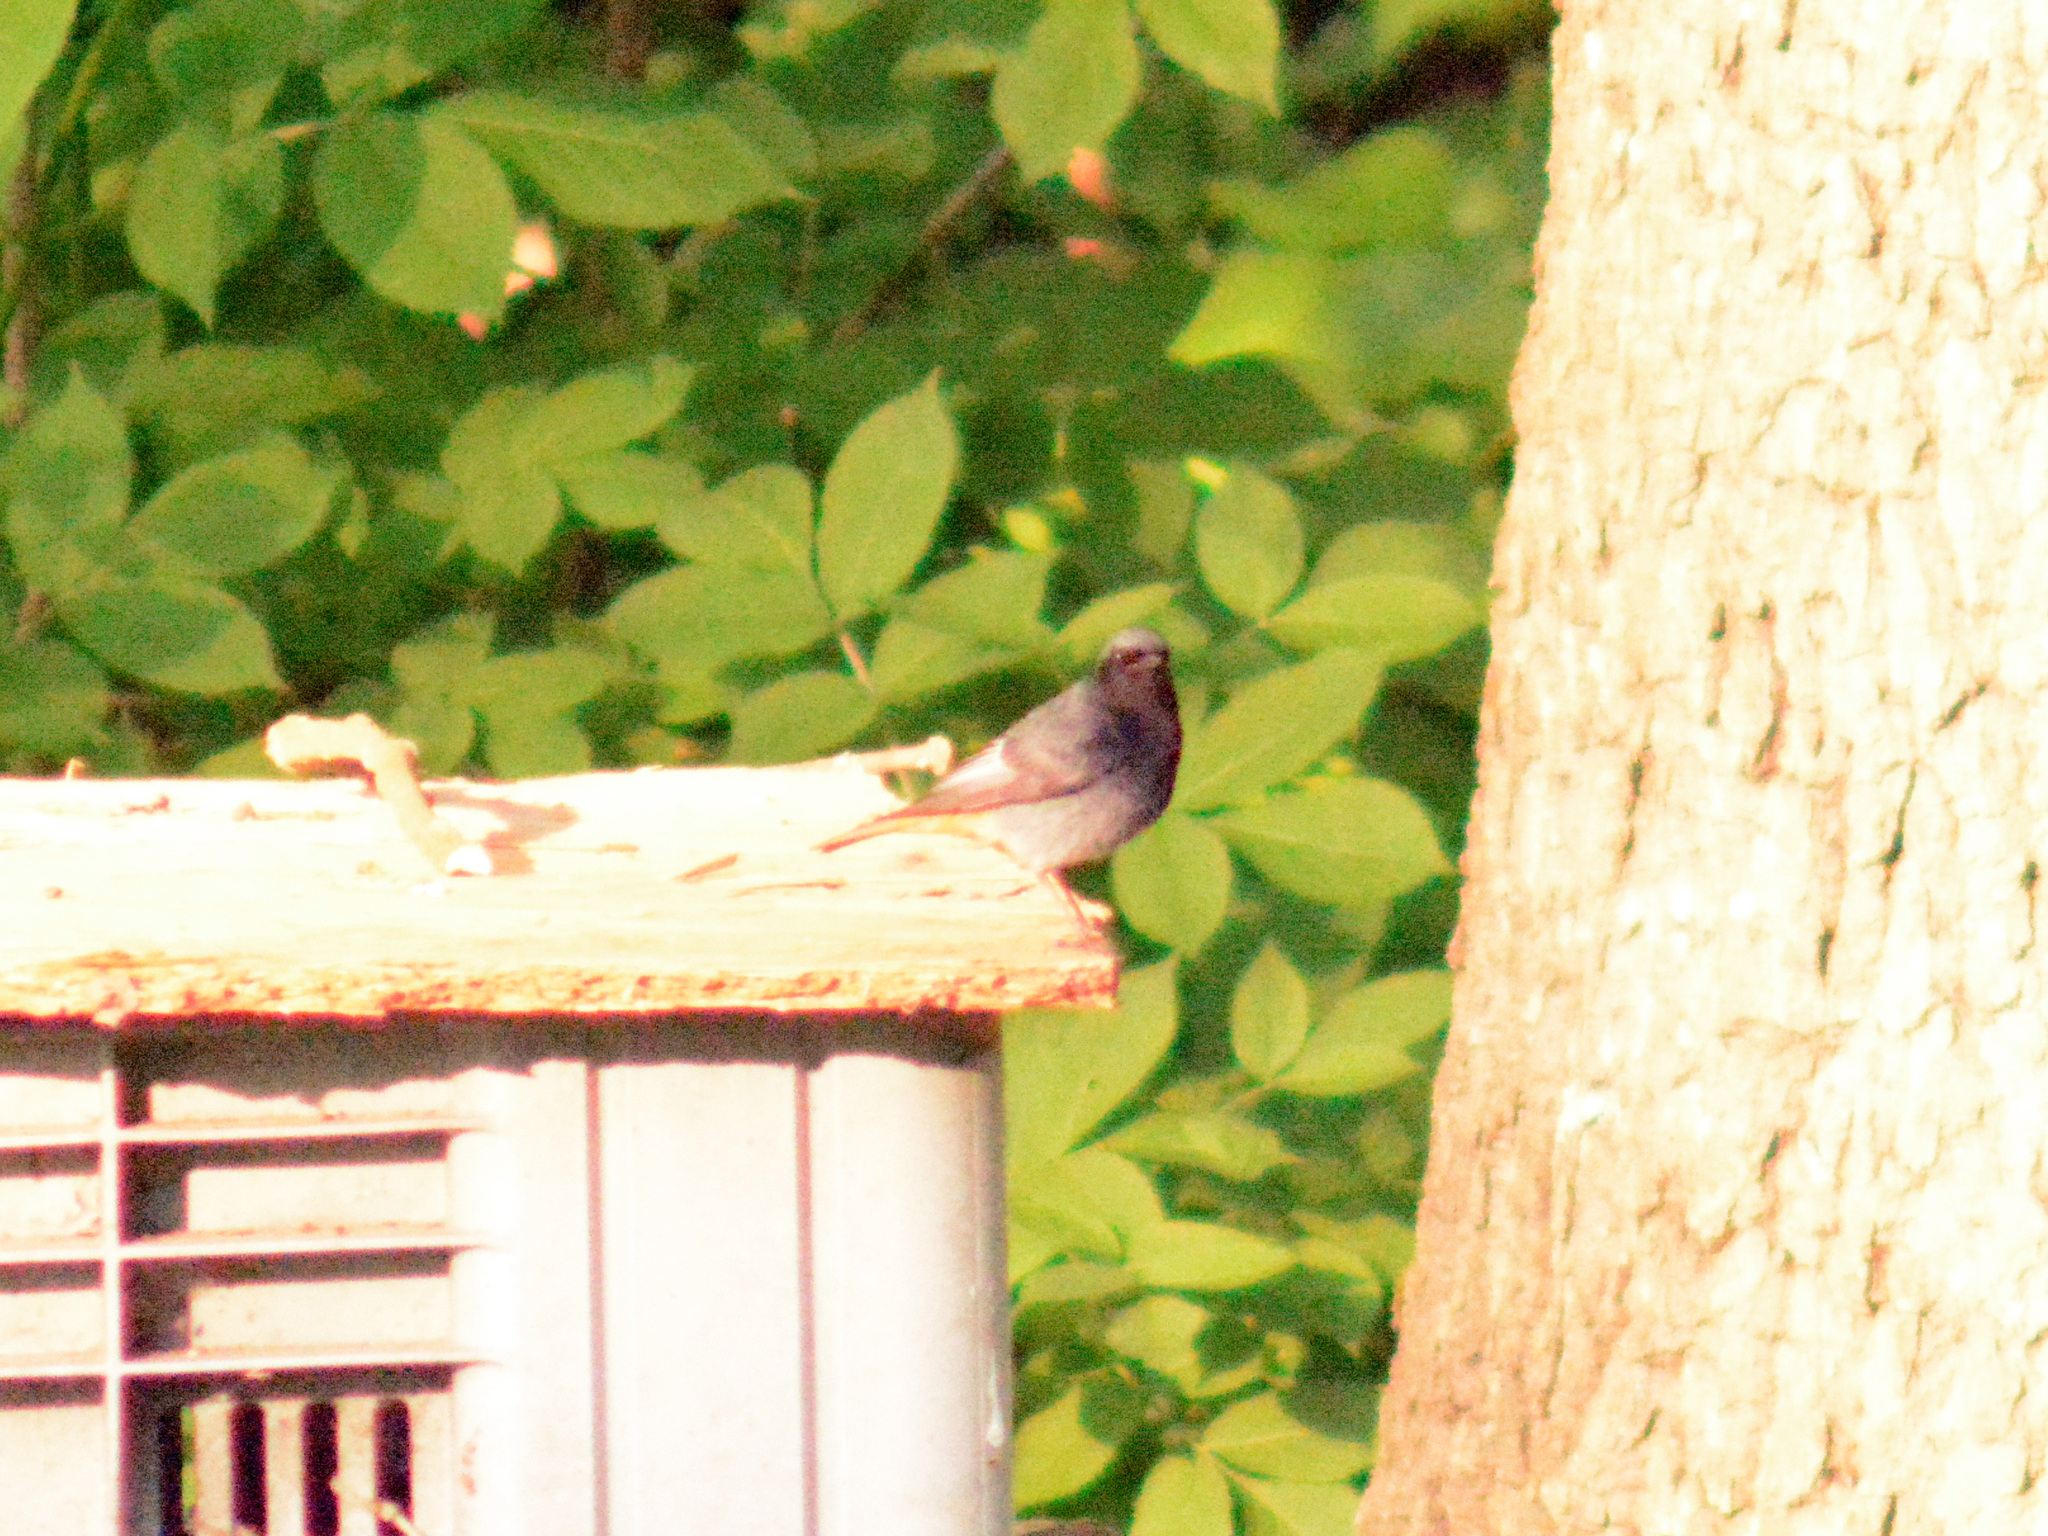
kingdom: Animalia
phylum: Chordata
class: Aves
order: Passeriformes
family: Muscicapidae
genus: Phoenicurus
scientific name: Phoenicurus ochruros
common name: Black redstart
